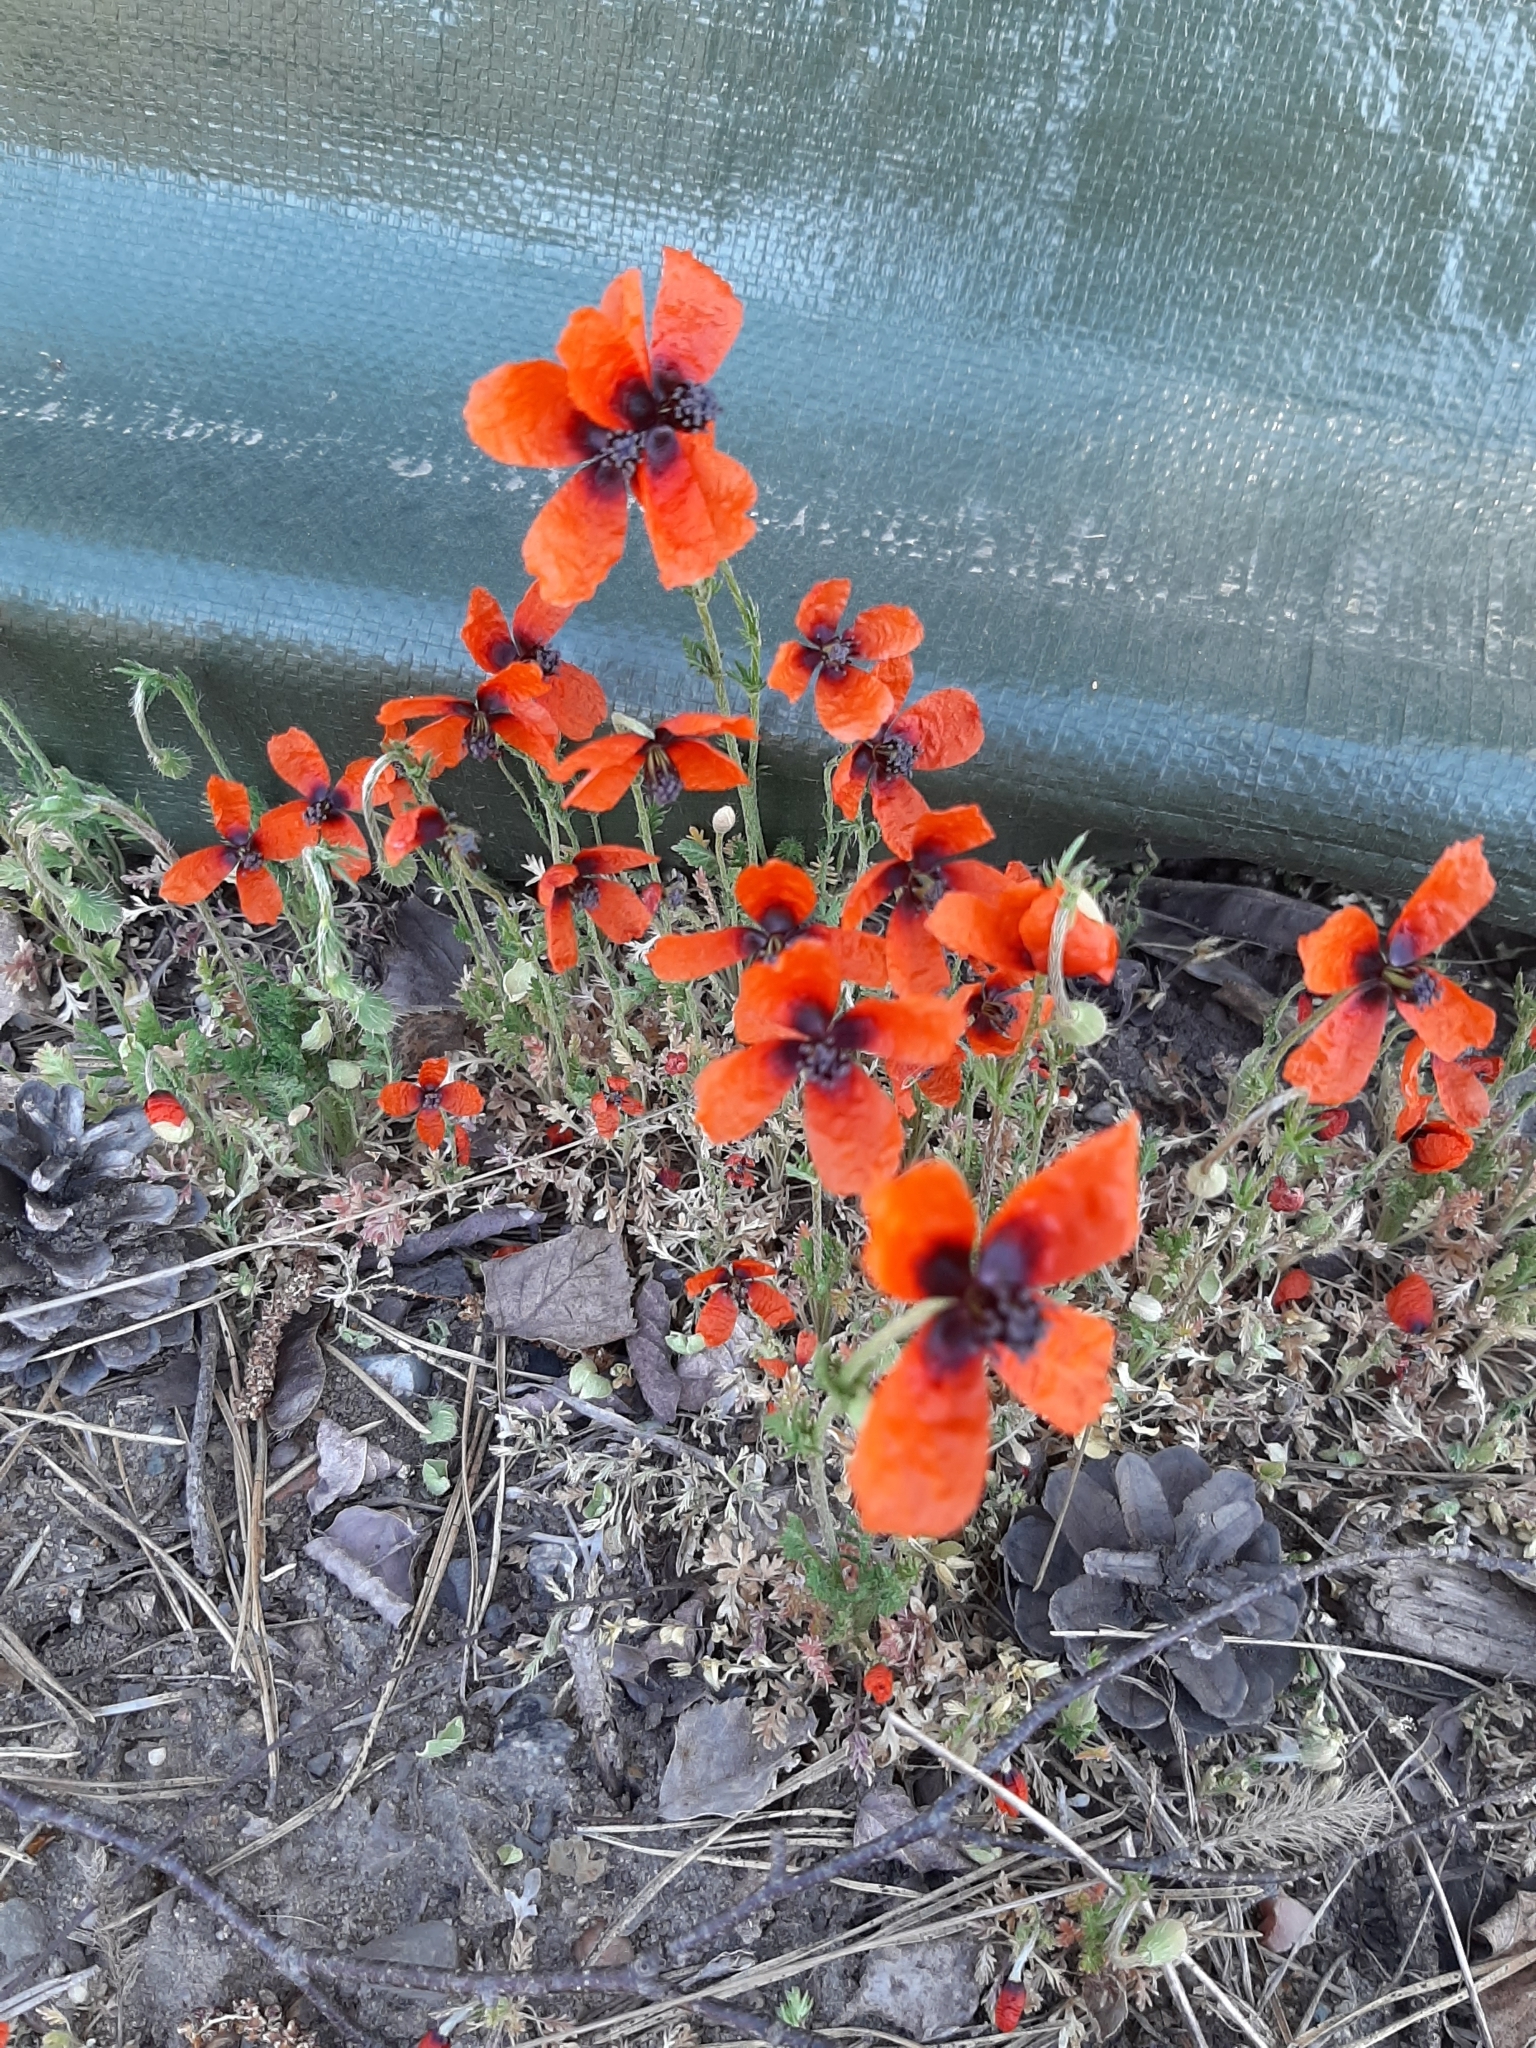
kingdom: Plantae
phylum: Tracheophyta
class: Magnoliopsida
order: Ranunculales
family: Papaveraceae
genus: Roemeria
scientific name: Roemeria argemone
